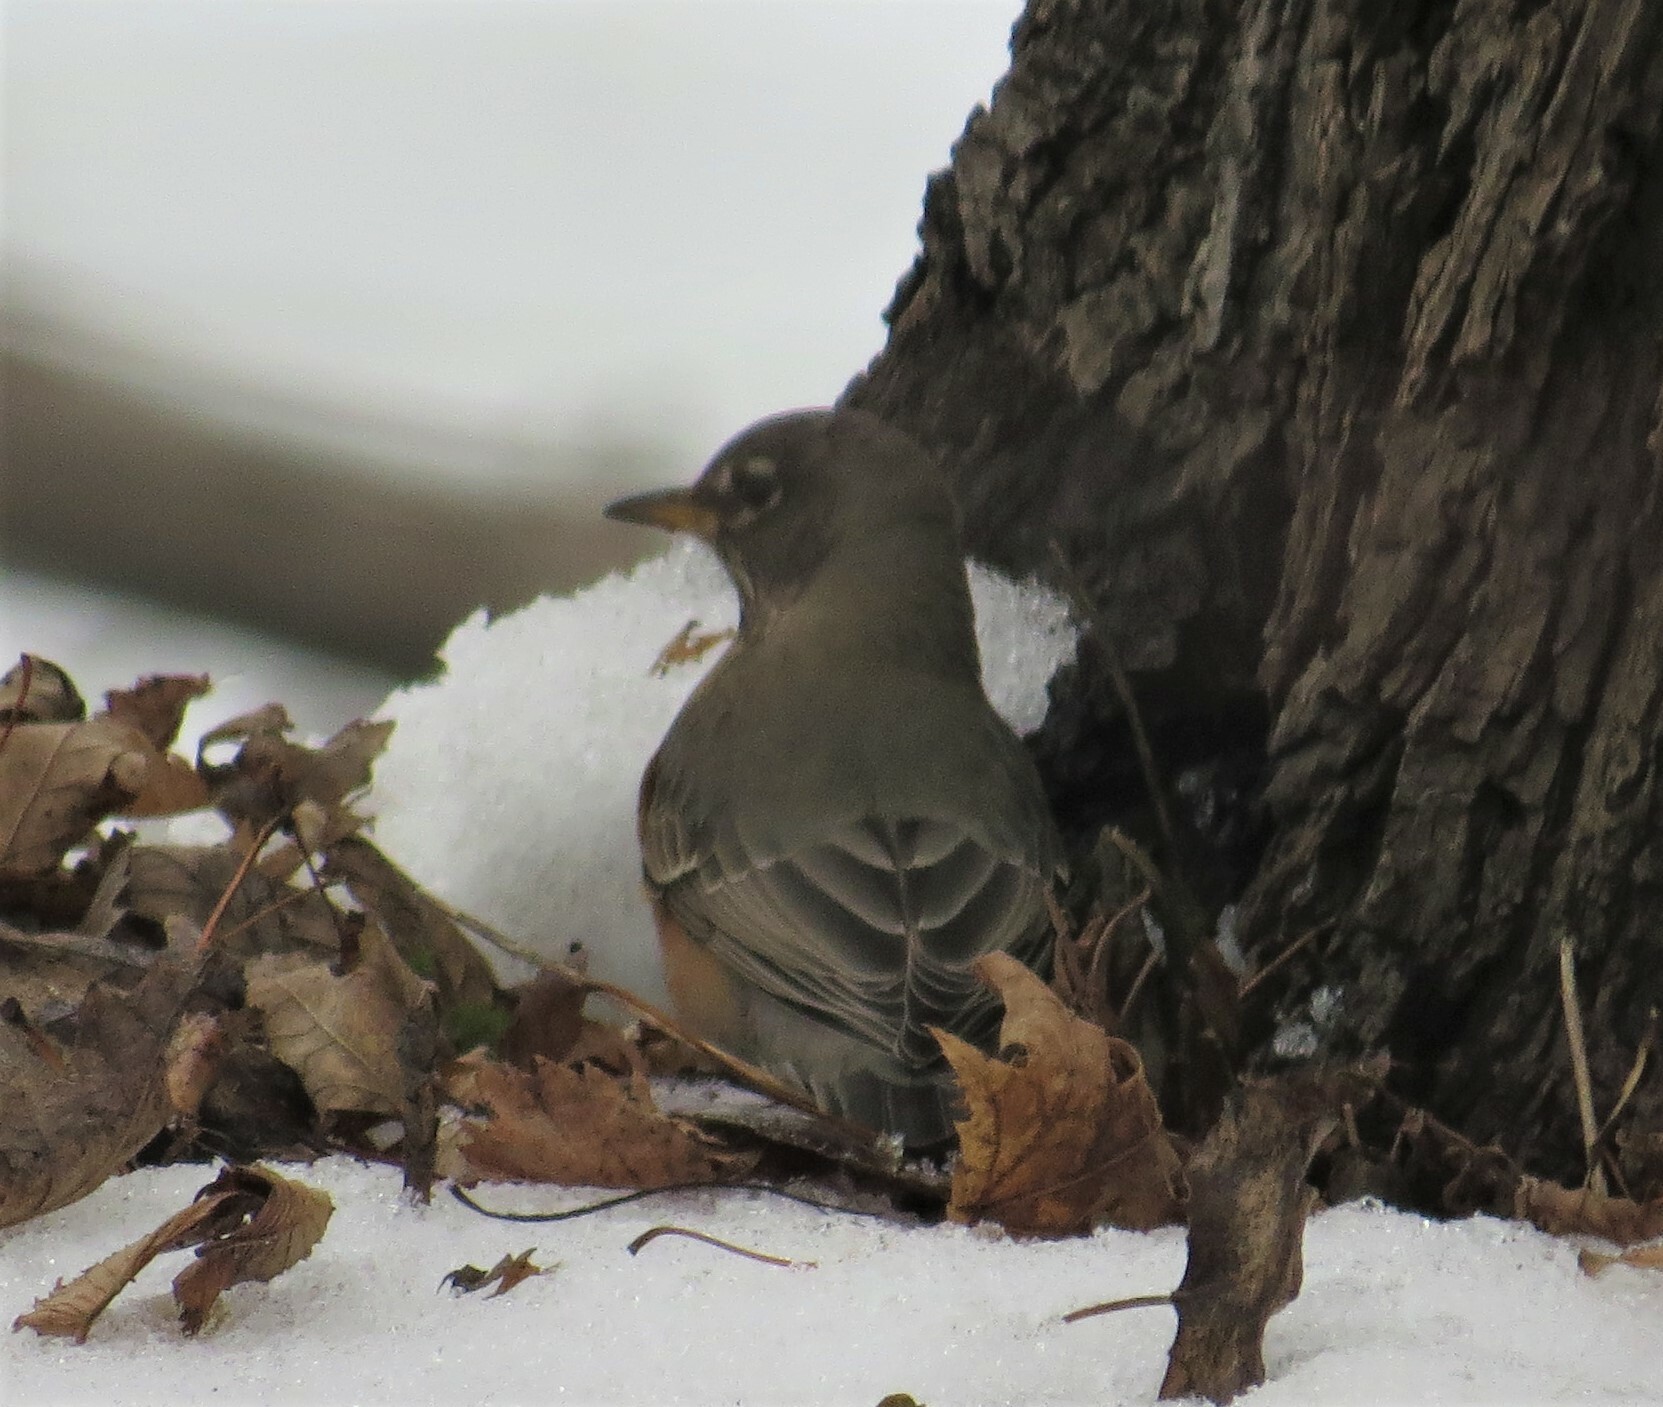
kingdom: Animalia
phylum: Chordata
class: Aves
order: Passeriformes
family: Turdidae
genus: Turdus
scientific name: Turdus migratorius
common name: American robin
